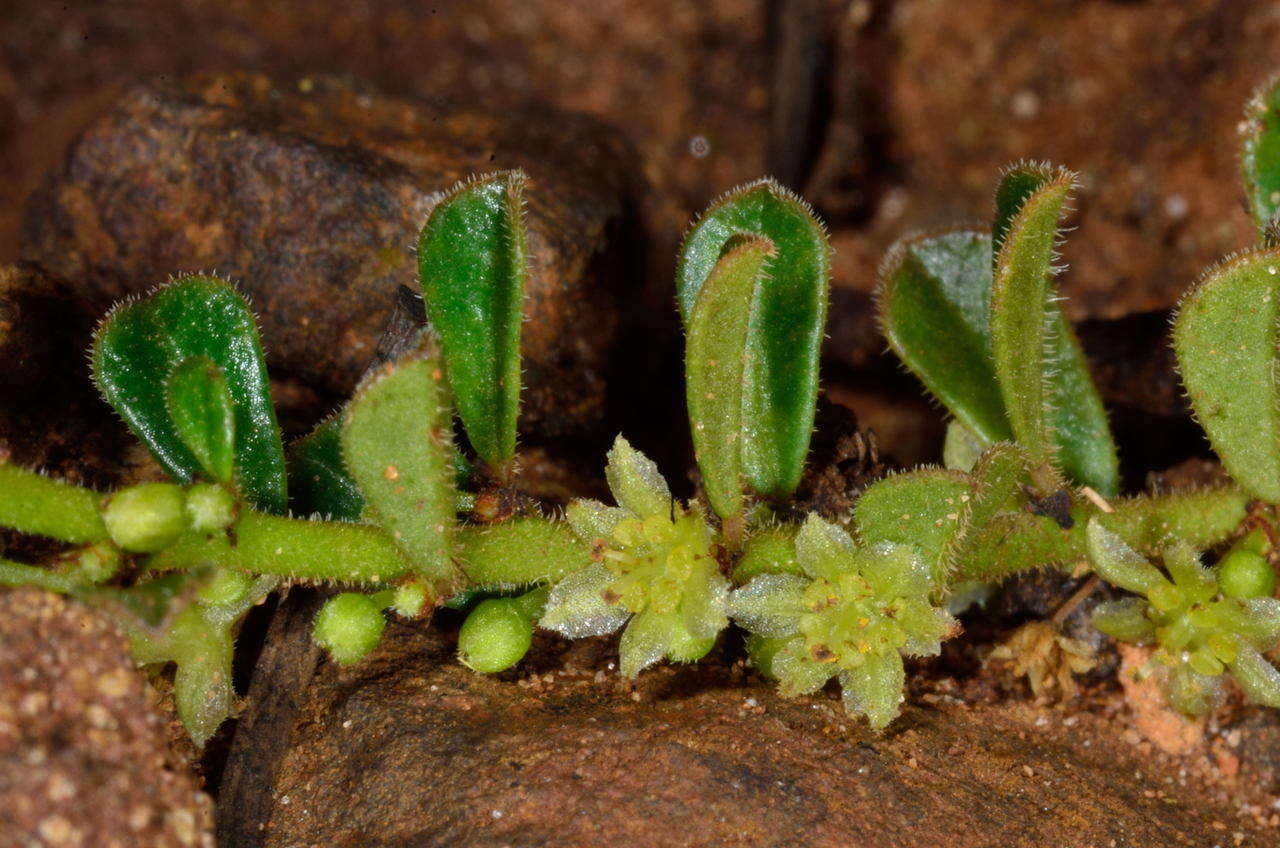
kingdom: Plantae
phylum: Tracheophyta
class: Magnoliopsida
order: Malpighiales
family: Phyllanthaceae
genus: Phyllanthus
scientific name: Phyllanthus hirtellus
